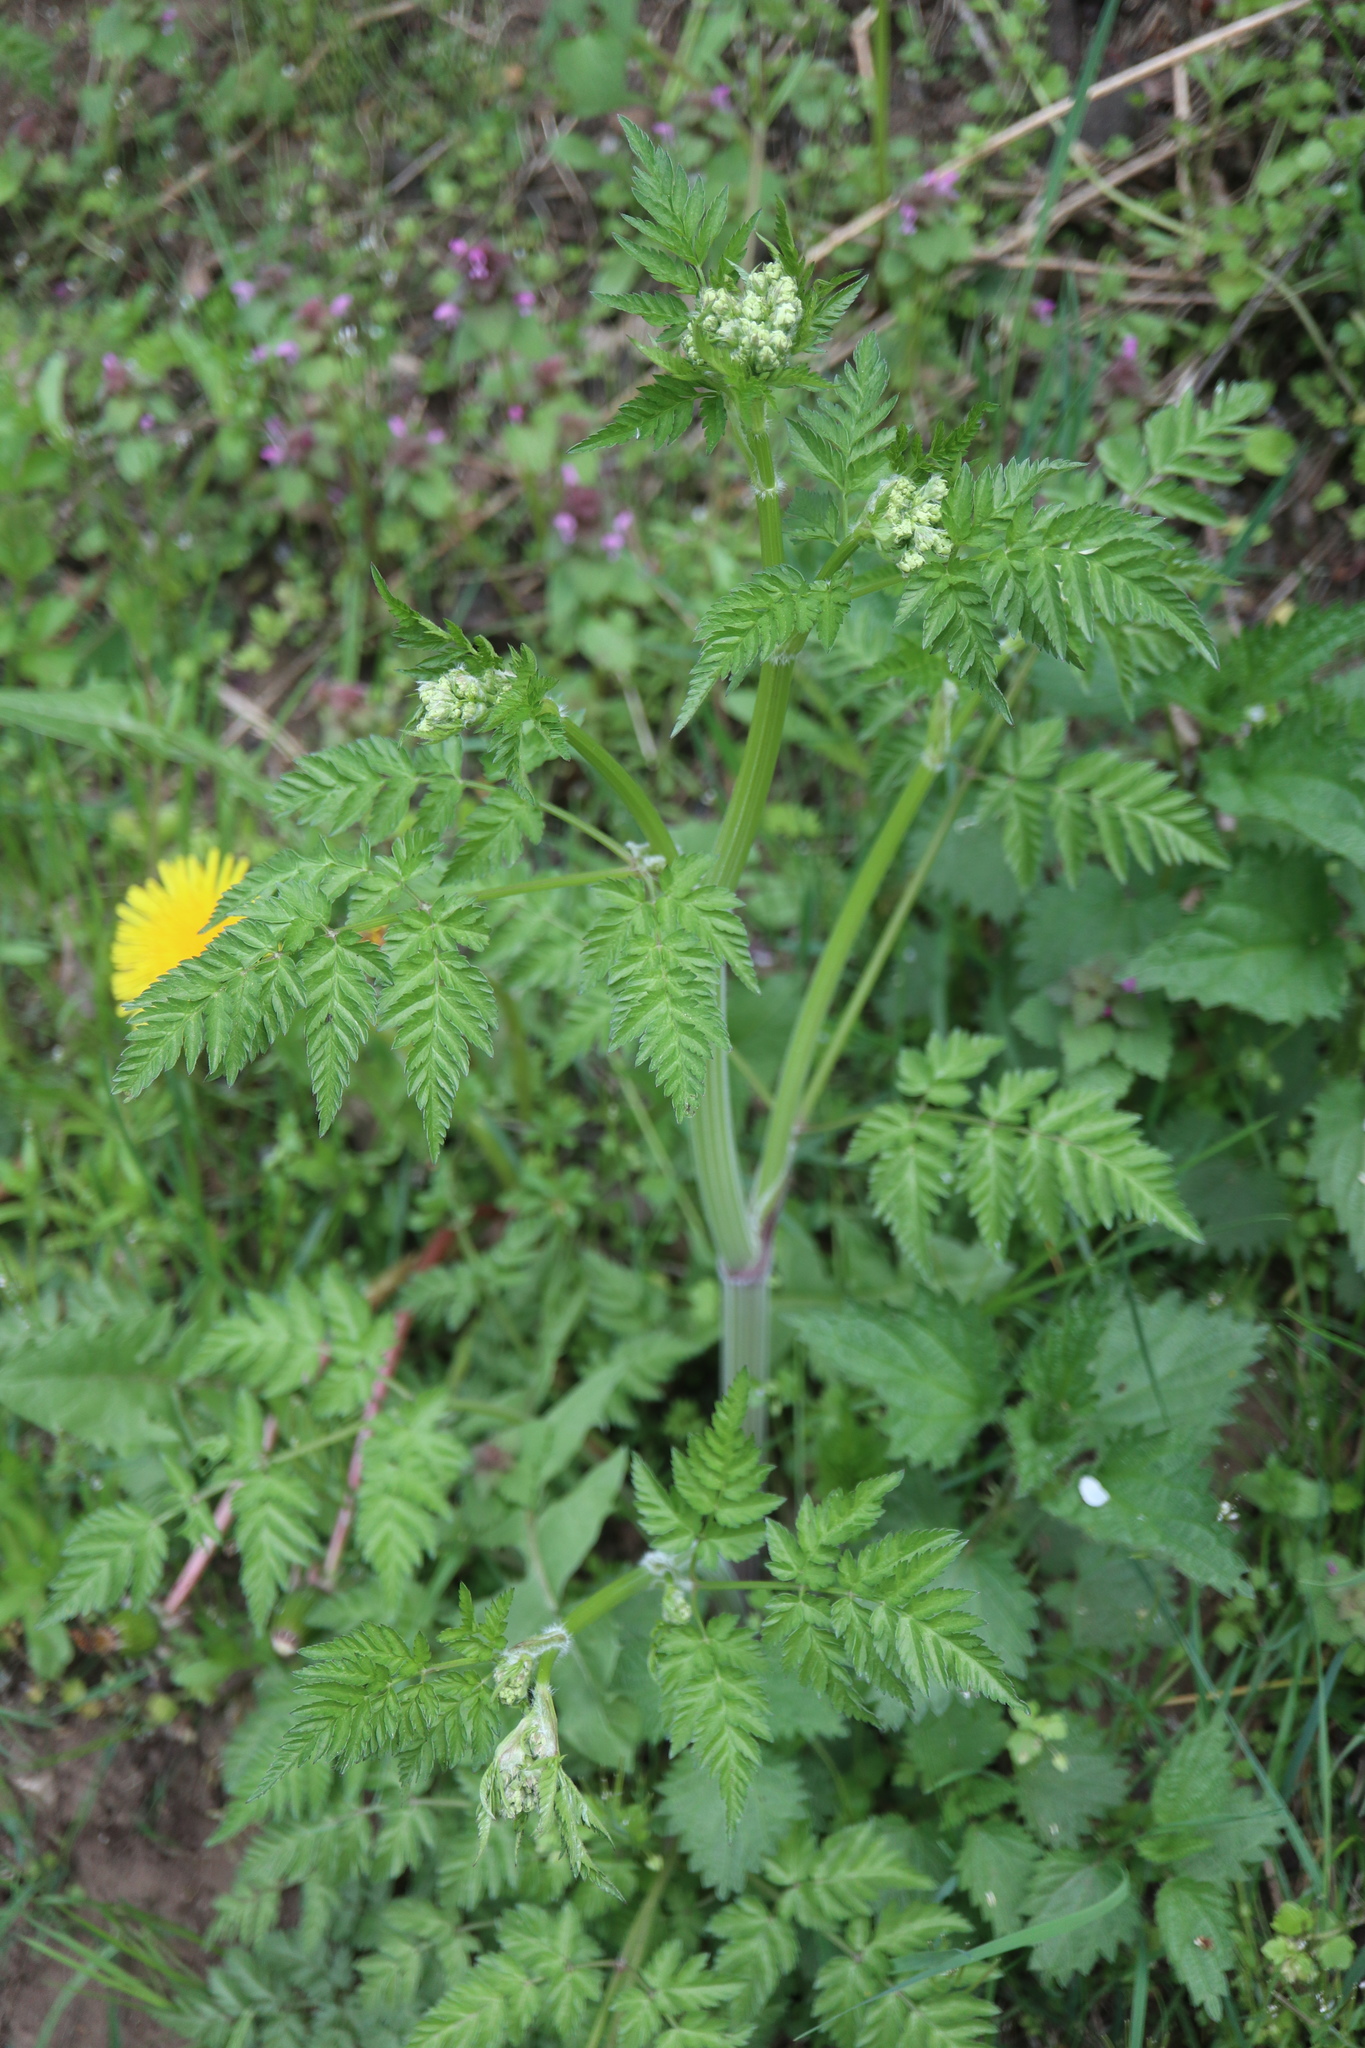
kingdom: Plantae
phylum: Tracheophyta
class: Magnoliopsida
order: Apiales
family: Apiaceae
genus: Anthriscus
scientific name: Anthriscus sylvestris
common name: Cow parsley
